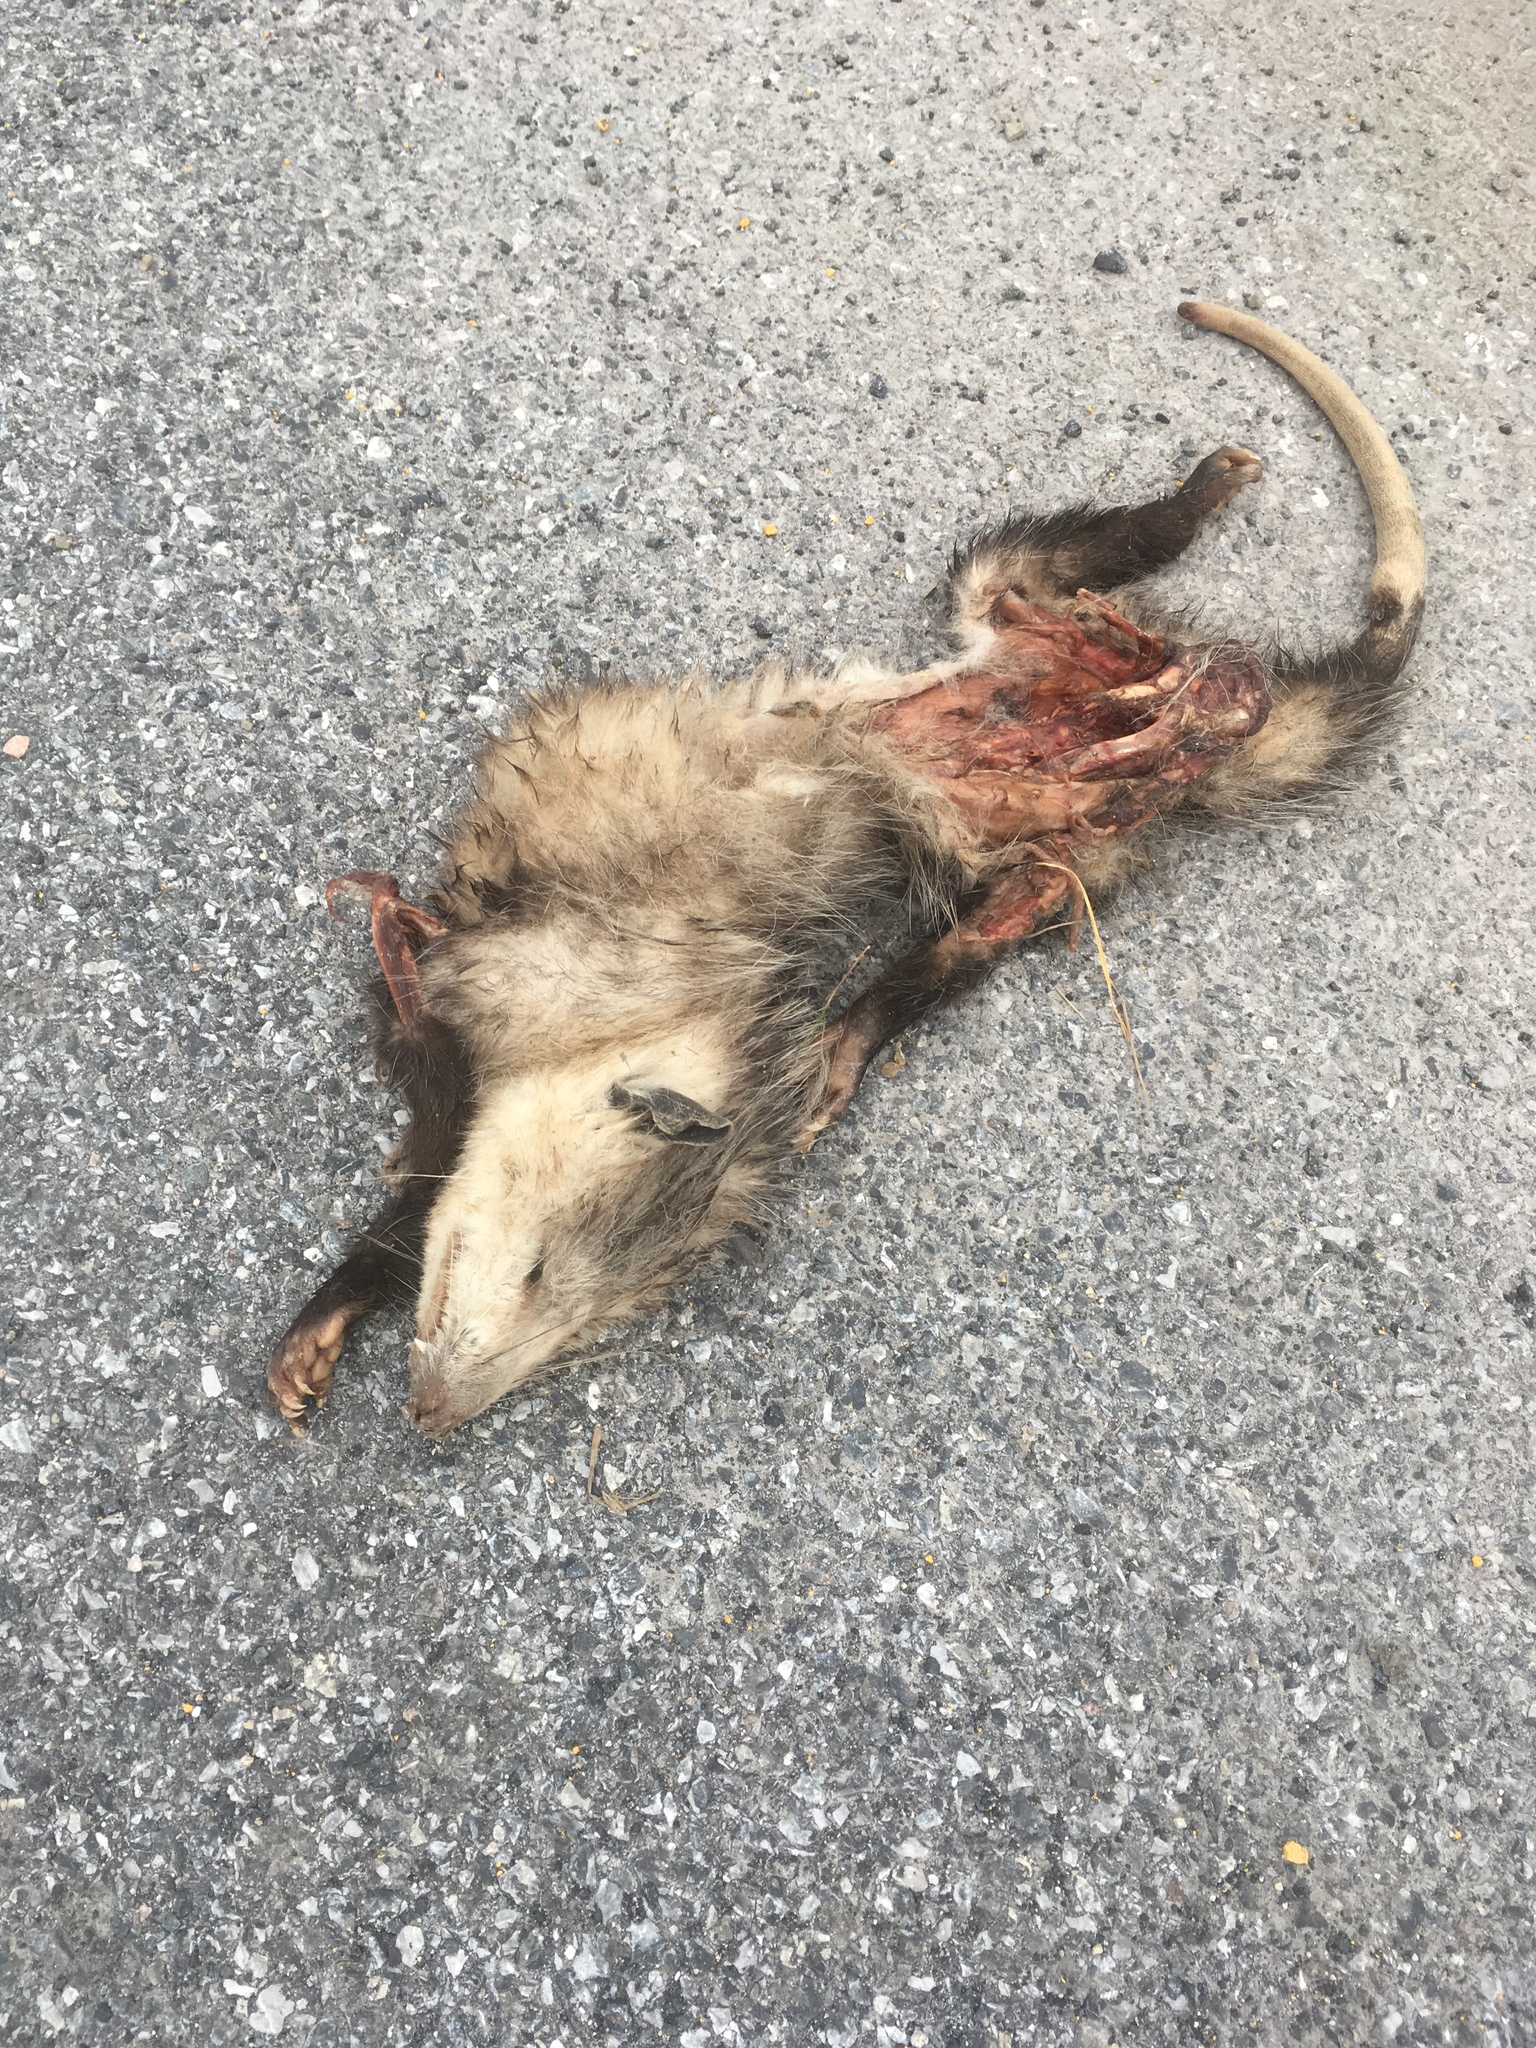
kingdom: Animalia
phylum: Chordata
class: Mammalia
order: Didelphimorphia
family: Didelphidae
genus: Didelphis
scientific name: Didelphis virginiana
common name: Virginia opossum
